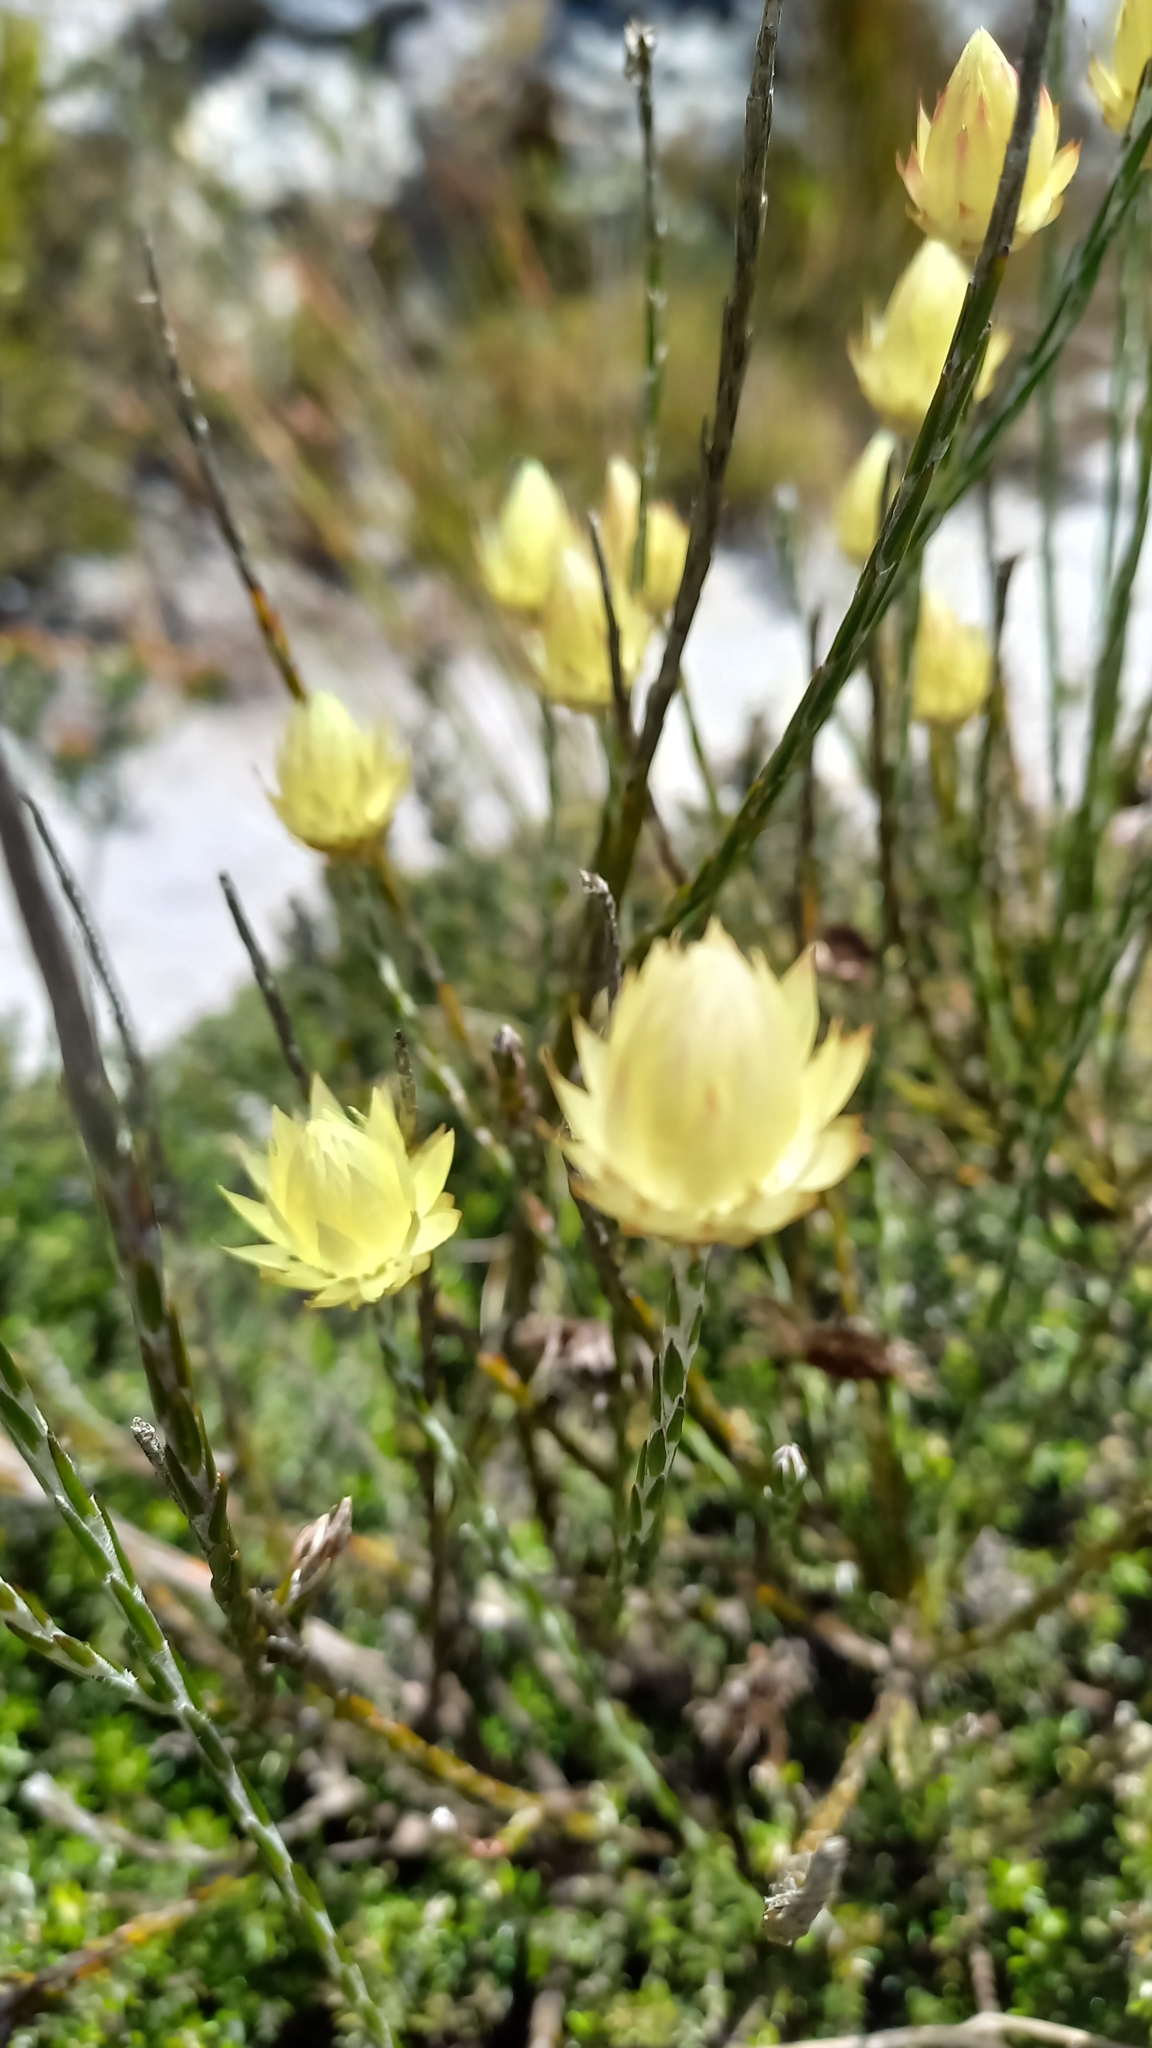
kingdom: Plantae
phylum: Tracheophyta
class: Magnoliopsida
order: Asterales
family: Asteraceae
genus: Edmondia
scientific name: Edmondia sesamoides
